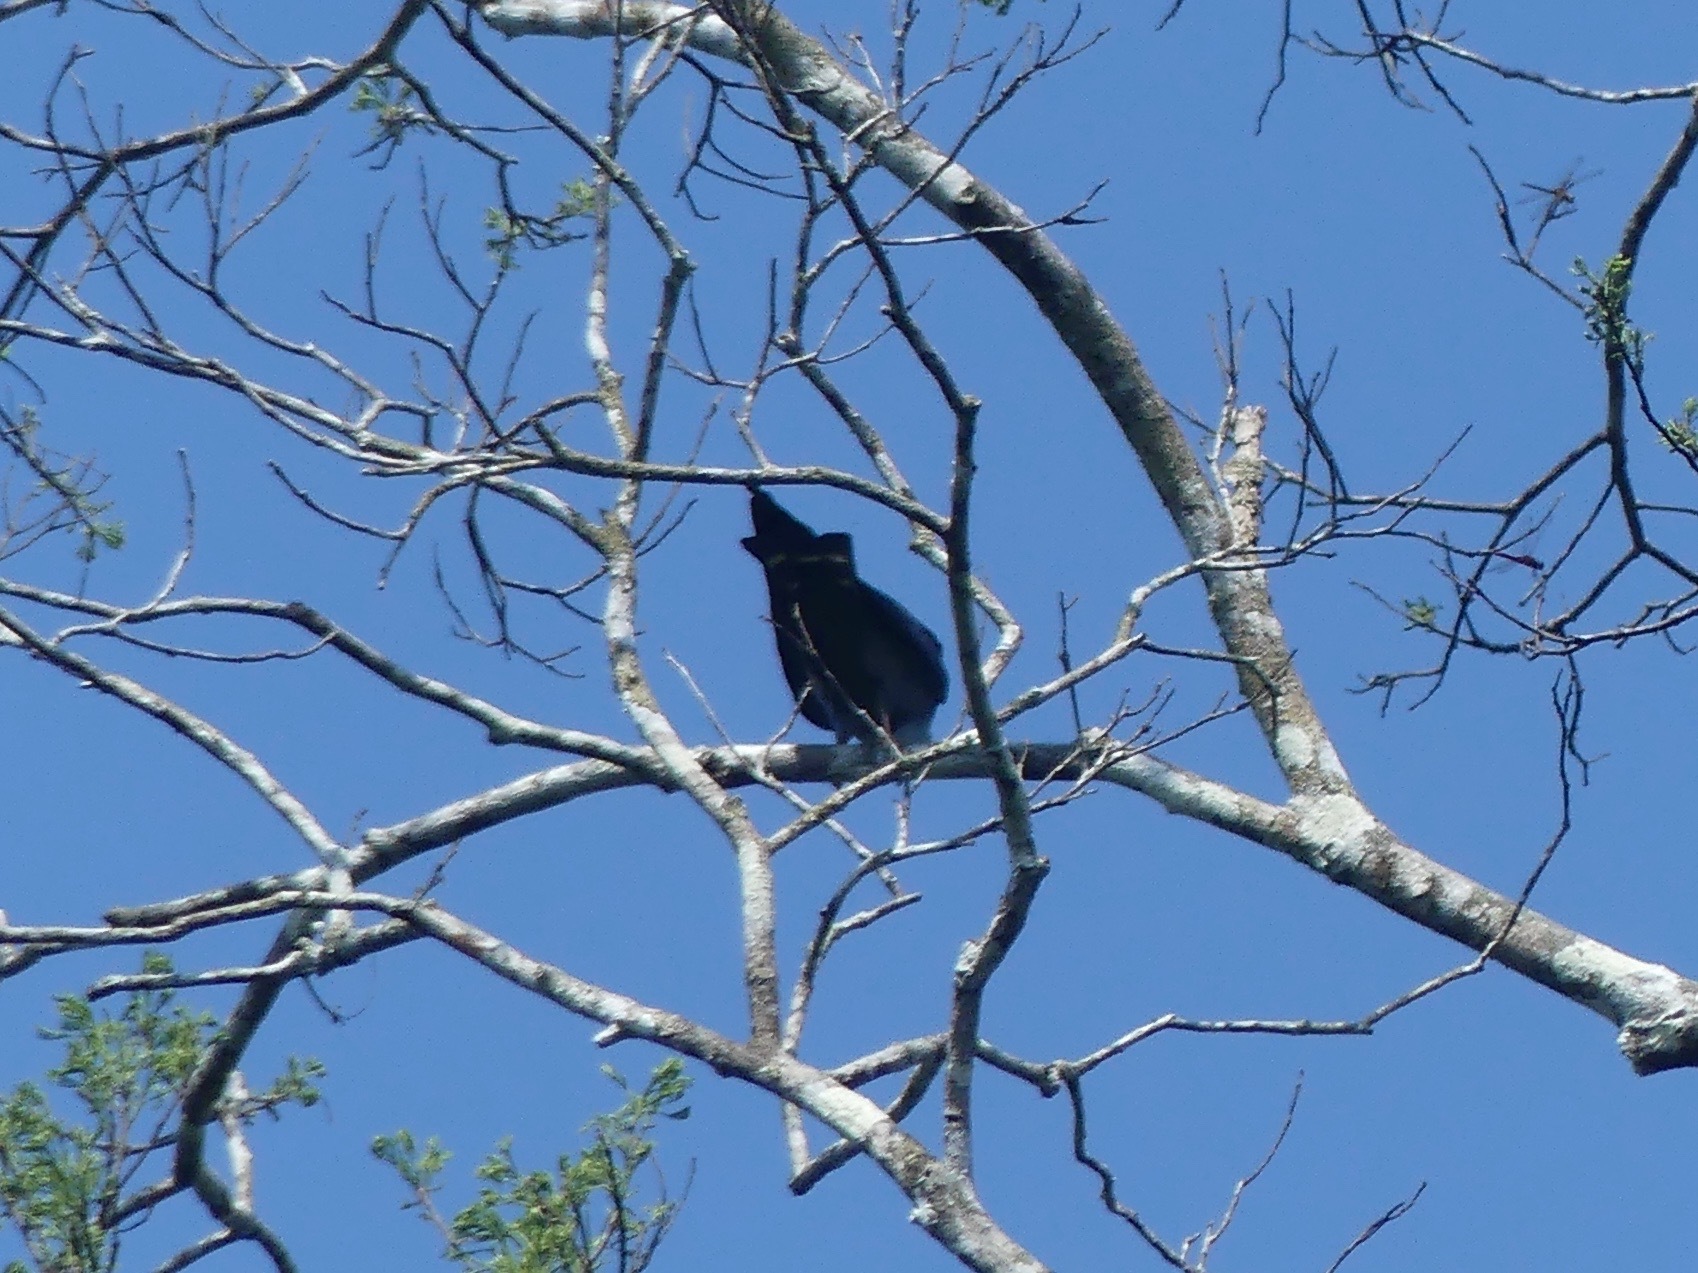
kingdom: Animalia
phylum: Chordata
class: Aves
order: Accipitriformes
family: Accipitridae
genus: Ictinia
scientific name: Ictinia plumbea
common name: Plumbeous kite
